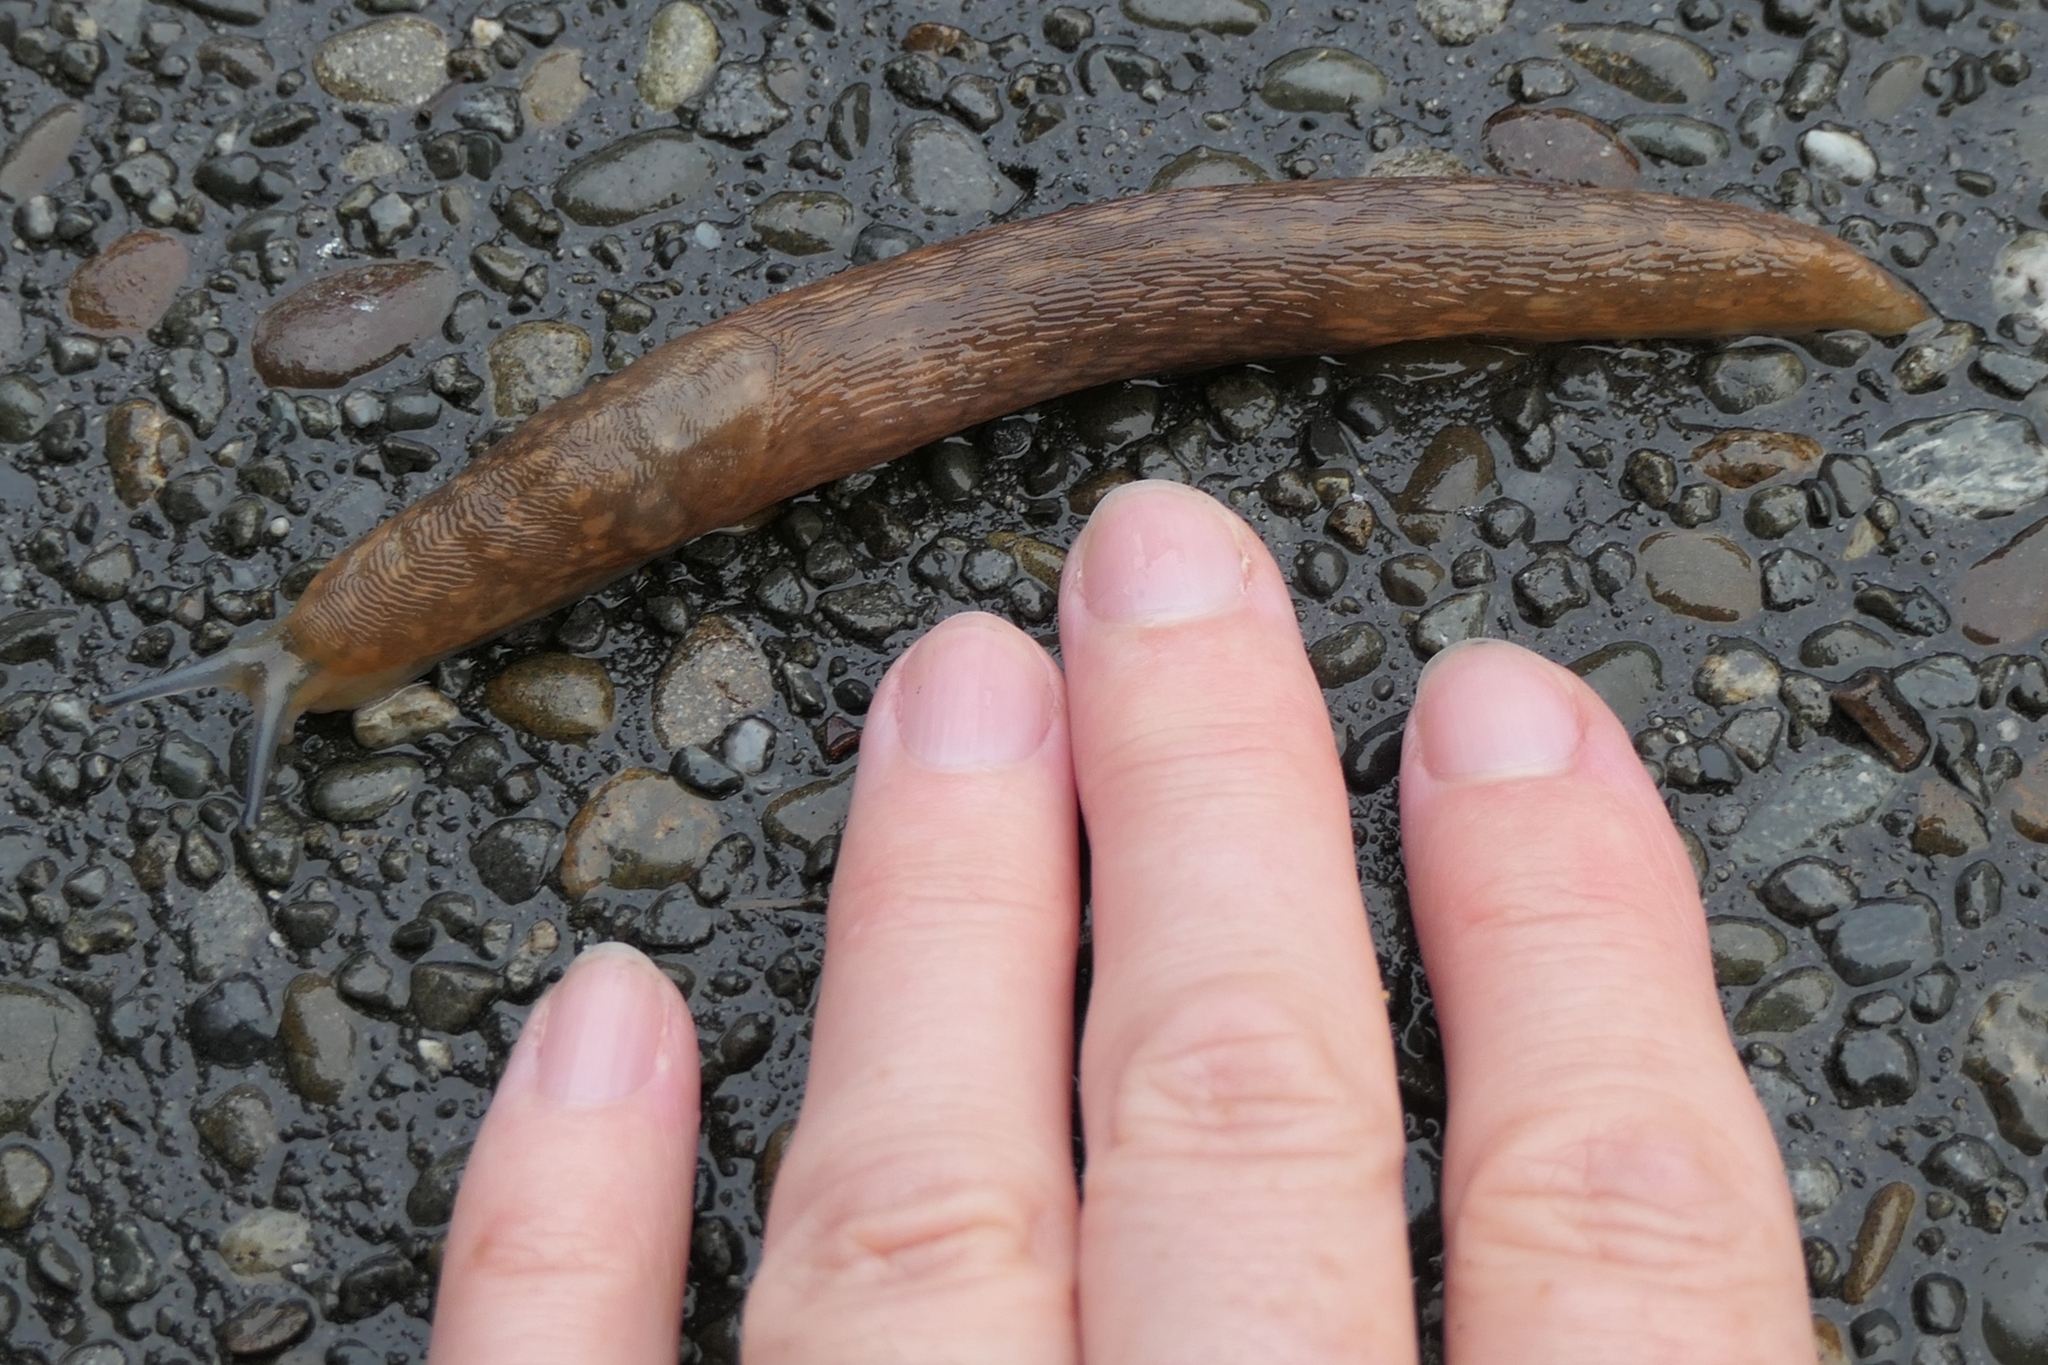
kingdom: Animalia
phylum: Mollusca
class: Gastropoda
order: Stylommatophora
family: Limacidae
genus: Limacus
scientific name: Limacus flavus
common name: Yellow gardenslug
